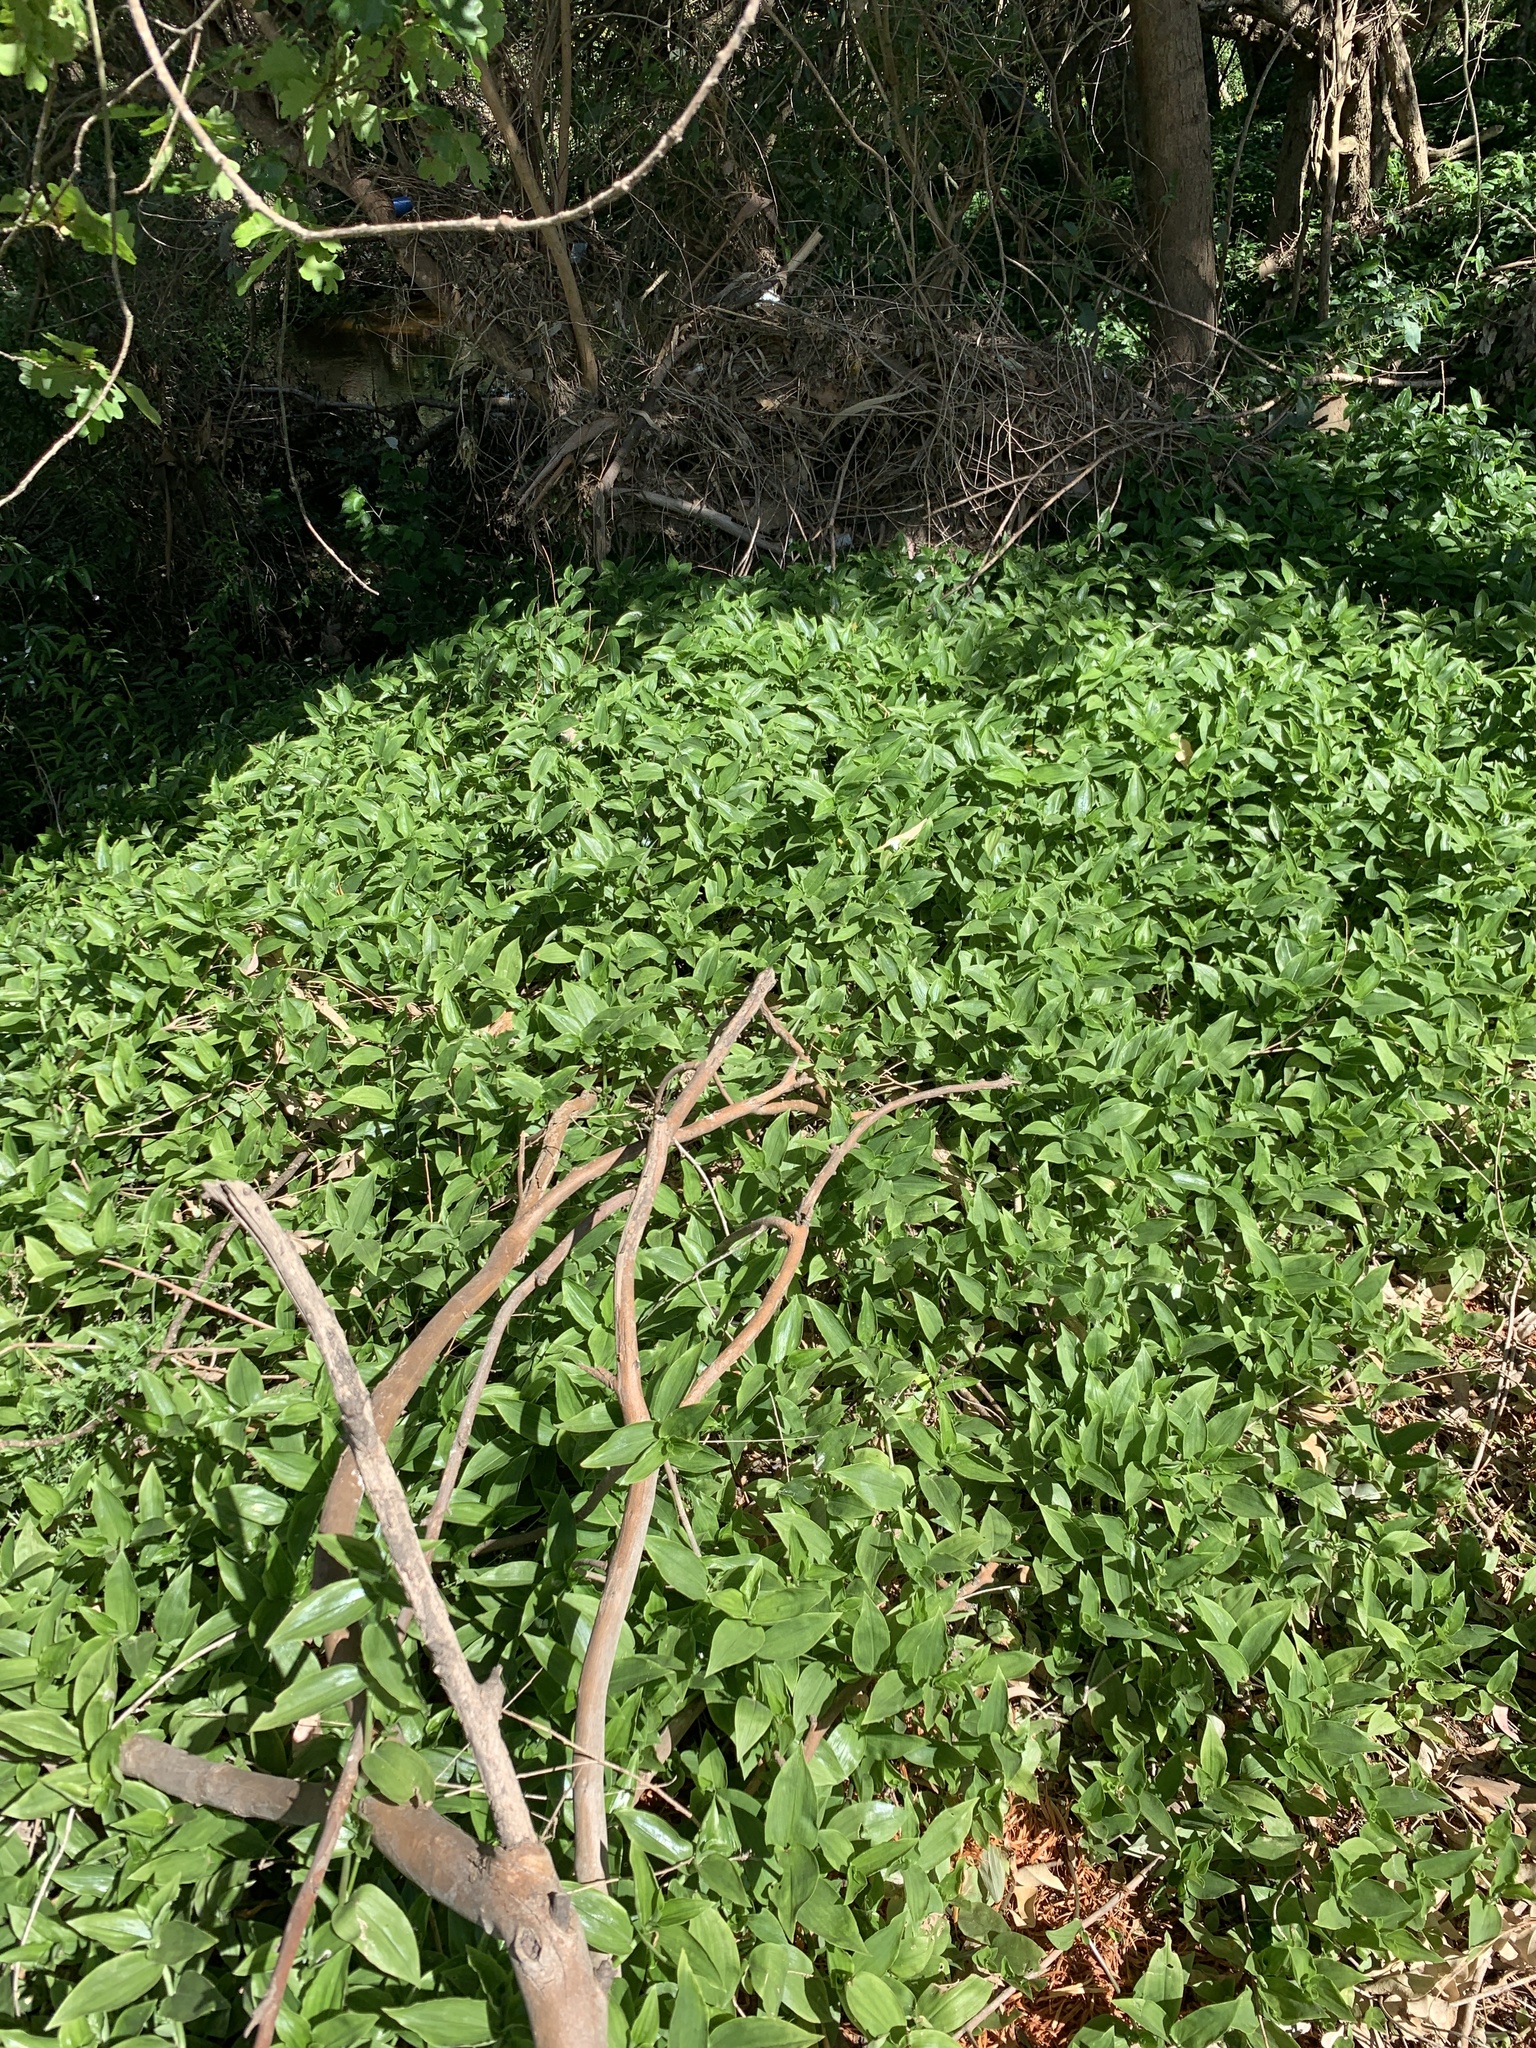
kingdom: Plantae
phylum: Tracheophyta
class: Liliopsida
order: Commelinales
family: Commelinaceae
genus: Tradescantia
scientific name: Tradescantia fluminensis
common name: Wandering-jew
